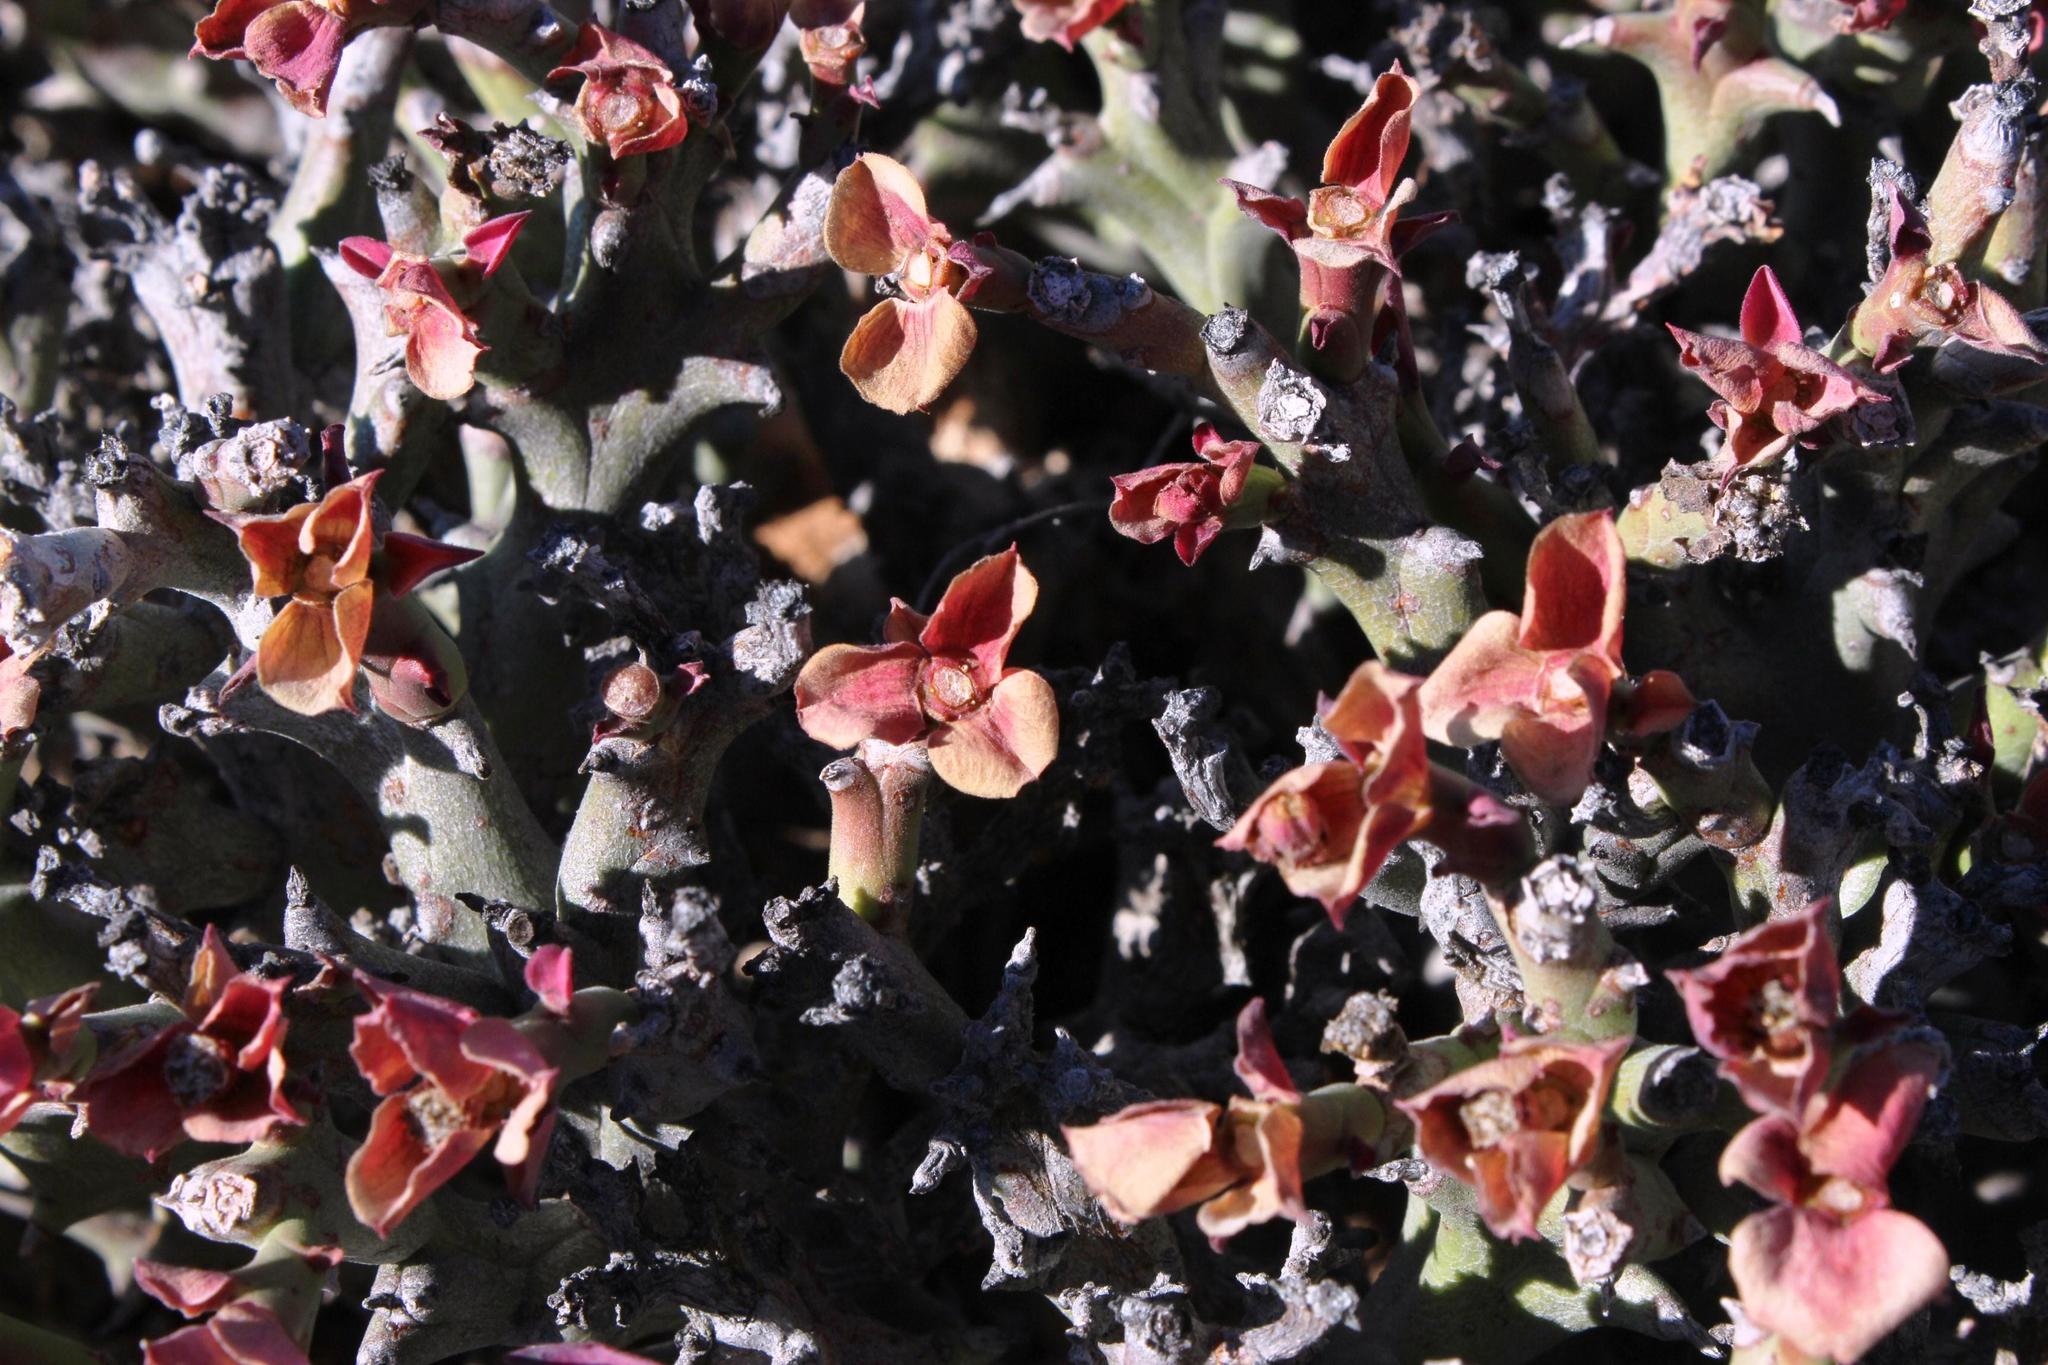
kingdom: Plantae
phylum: Tracheophyta
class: Magnoliopsida
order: Malpighiales
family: Euphorbiaceae
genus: Euphorbia
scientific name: Euphorbia hamata
